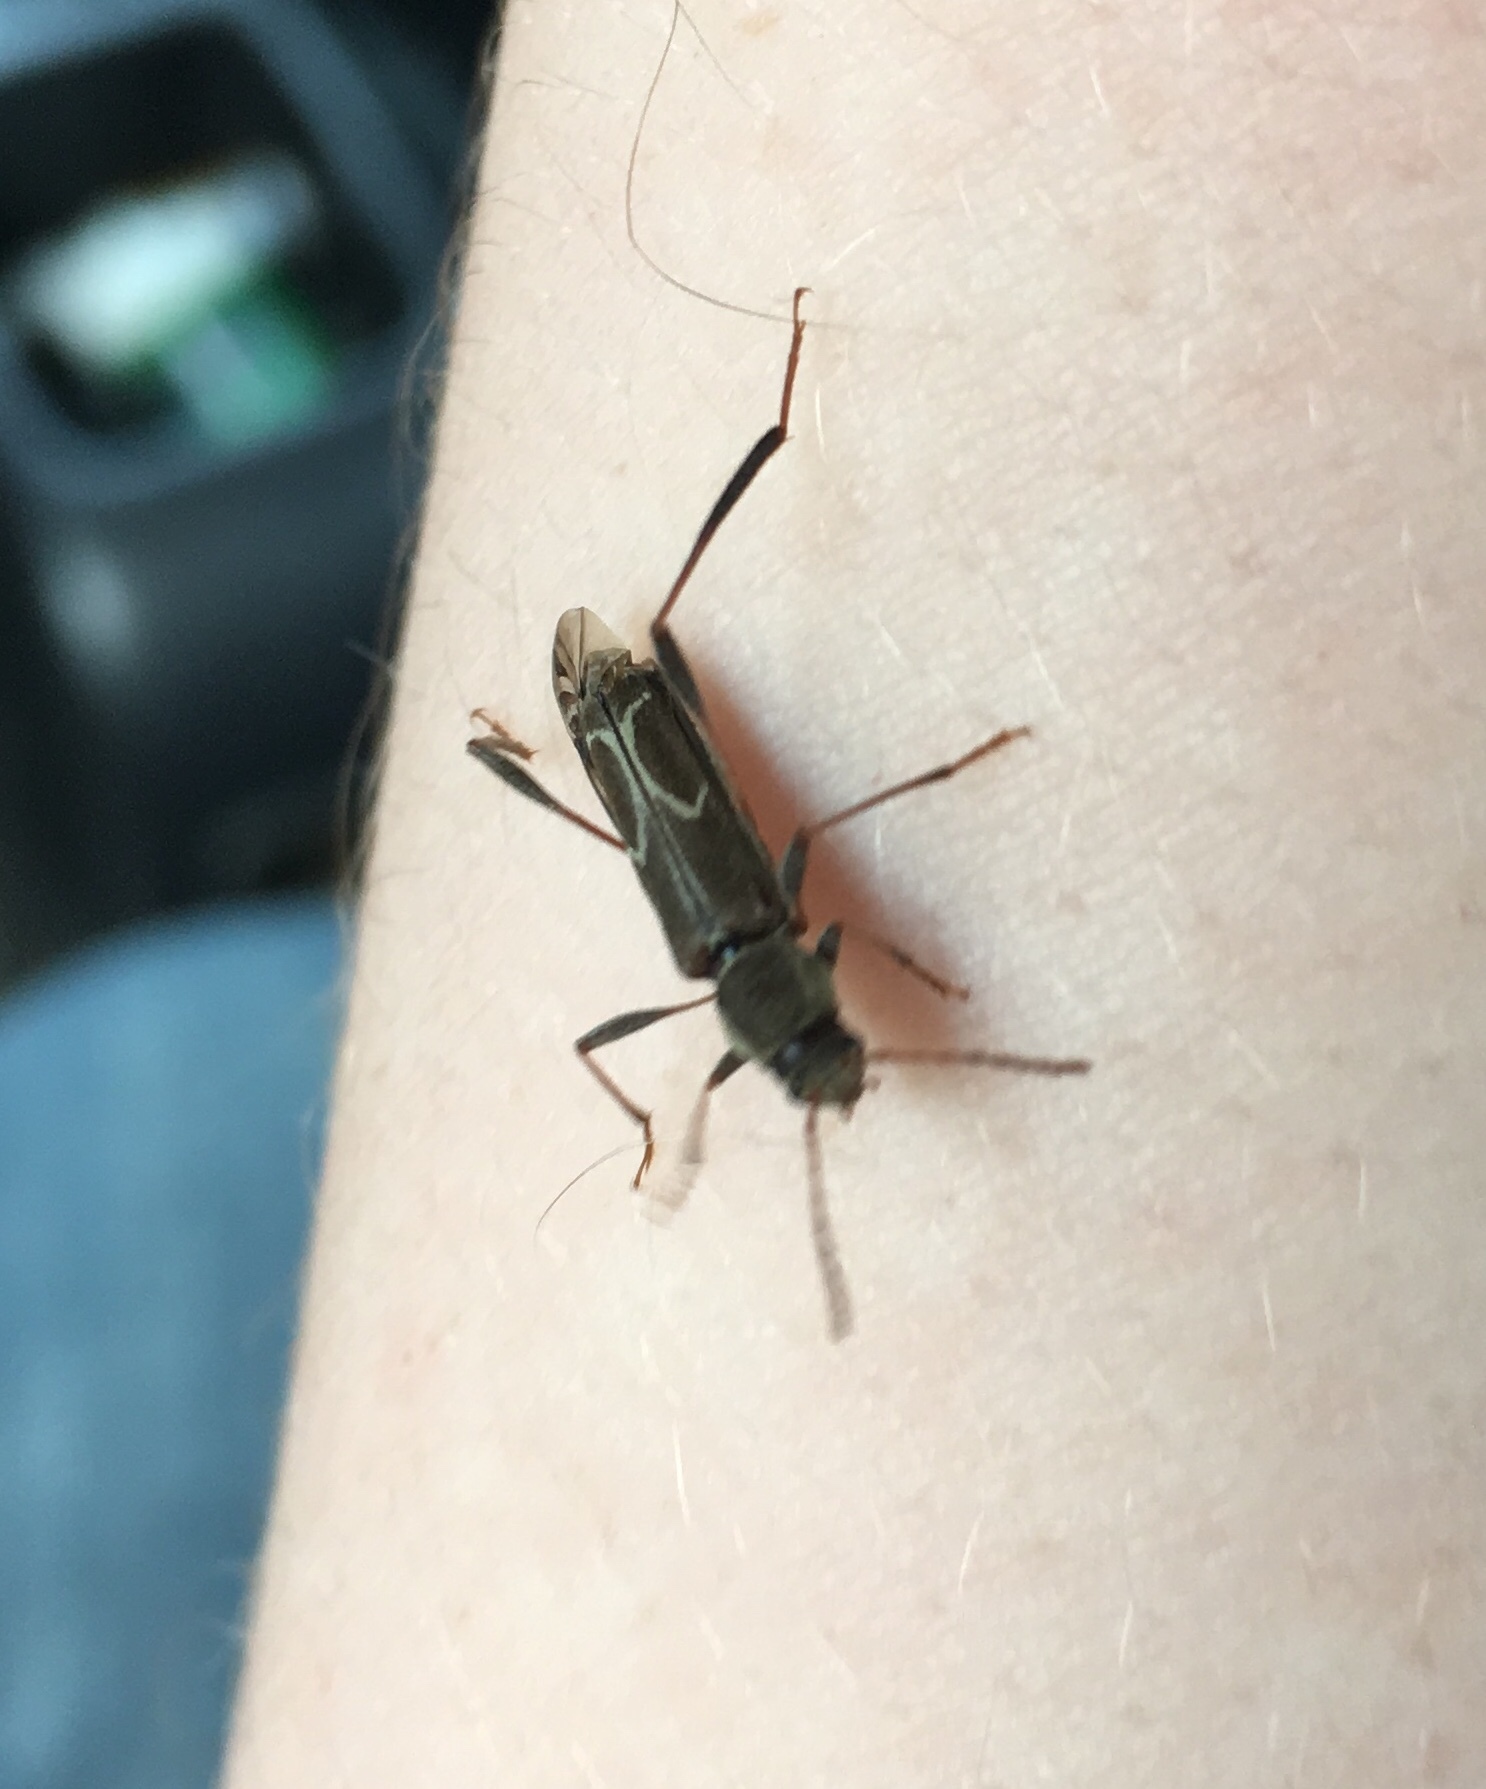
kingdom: Animalia
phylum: Arthropoda
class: Insecta
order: Coleoptera
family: Cerambycidae
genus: Neoclytus
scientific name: Neoclytus unicolor
